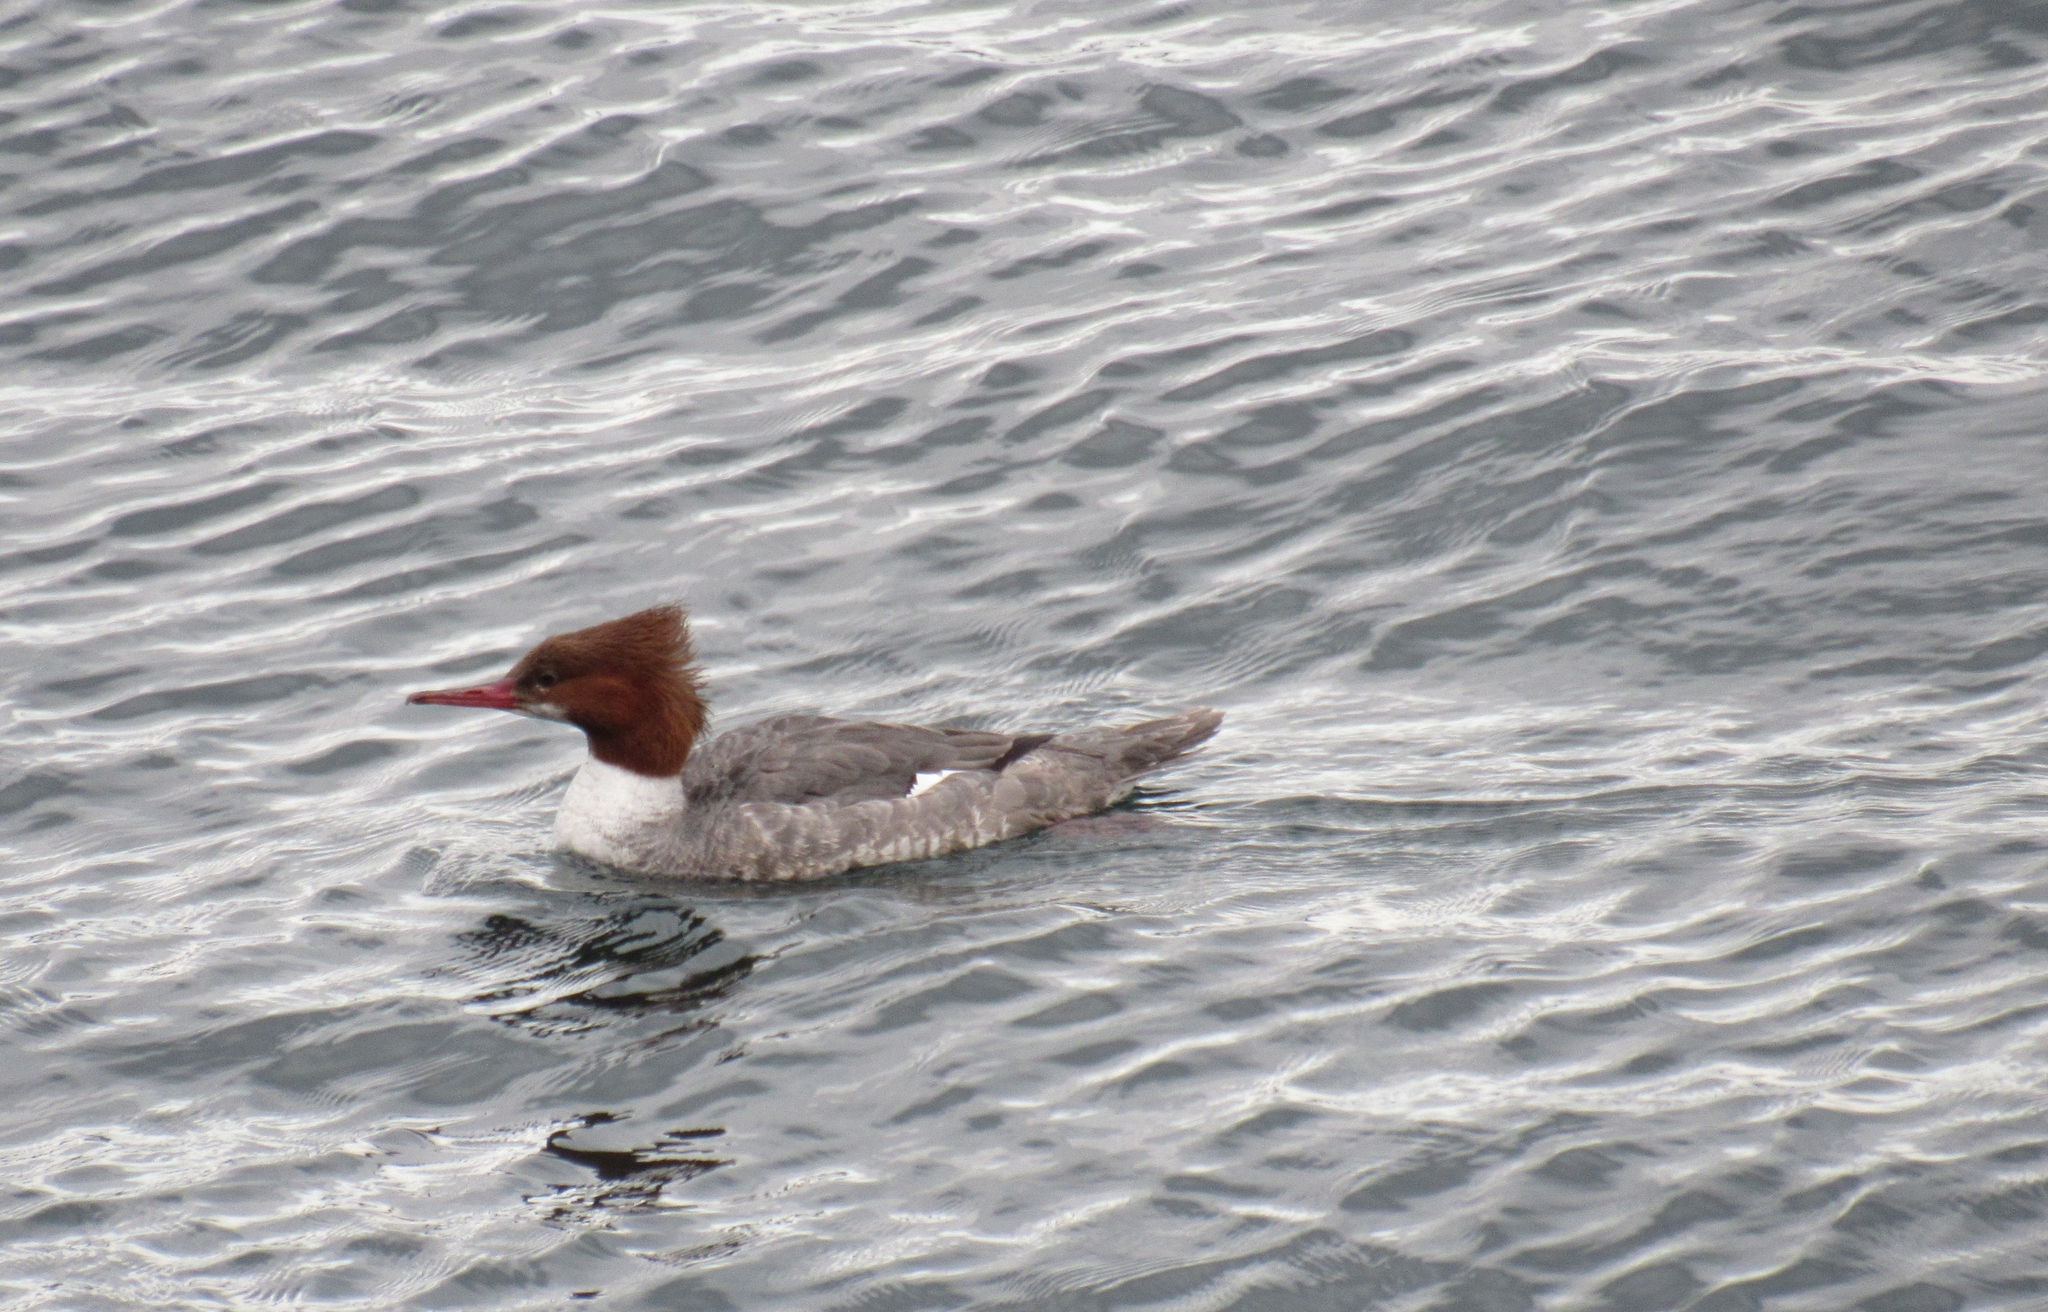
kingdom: Animalia
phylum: Chordata
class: Aves
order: Anseriformes
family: Anatidae
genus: Mergus
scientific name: Mergus merganser
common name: Common merganser
